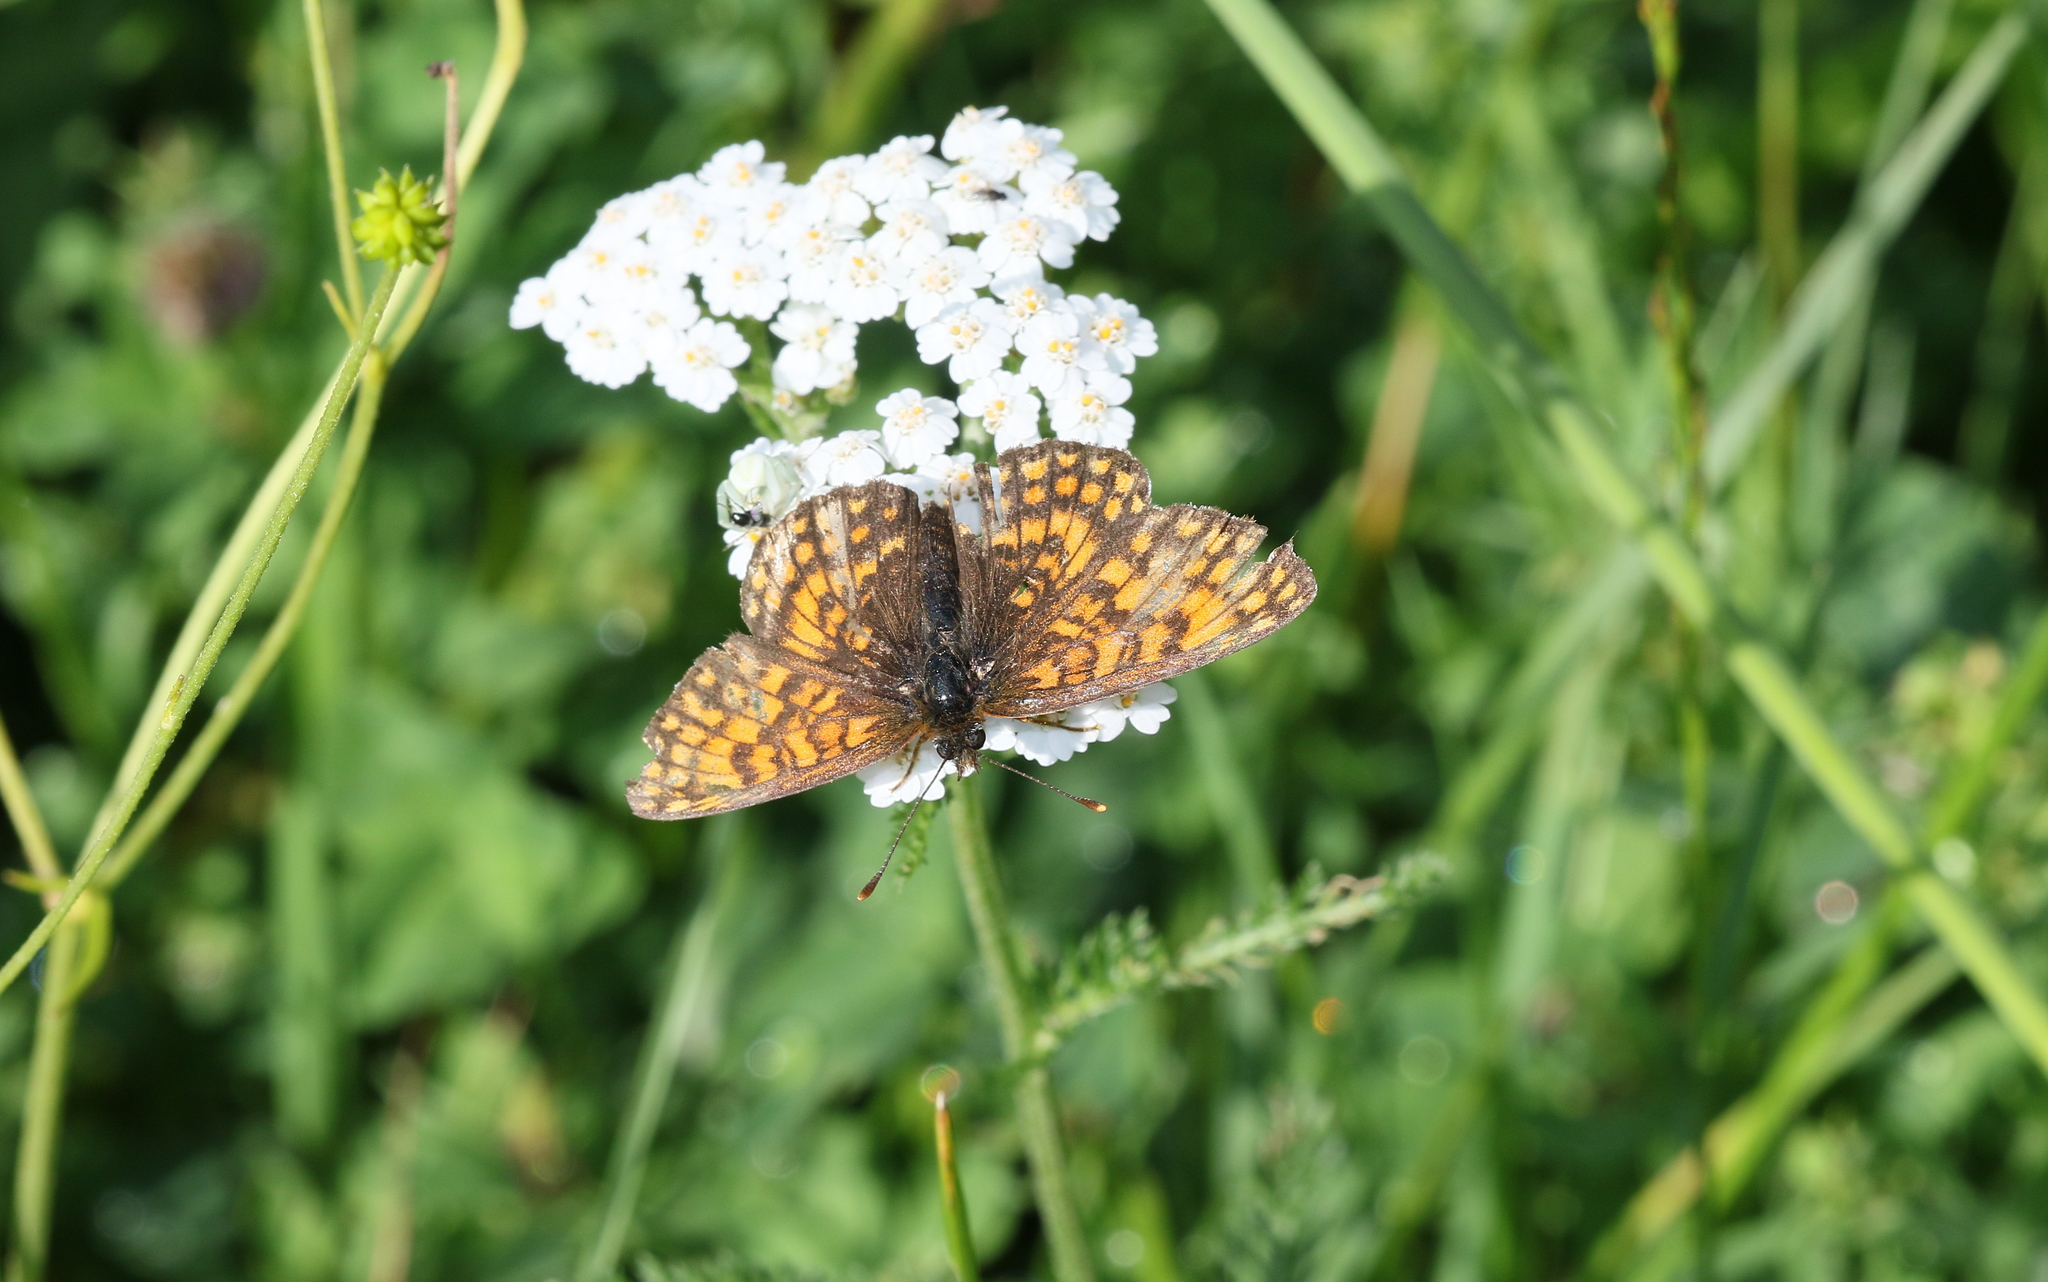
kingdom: Animalia
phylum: Arthropoda
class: Insecta
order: Lepidoptera
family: Nymphalidae
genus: Melitaea
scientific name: Melitaea athalia
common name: Heath fritillary
